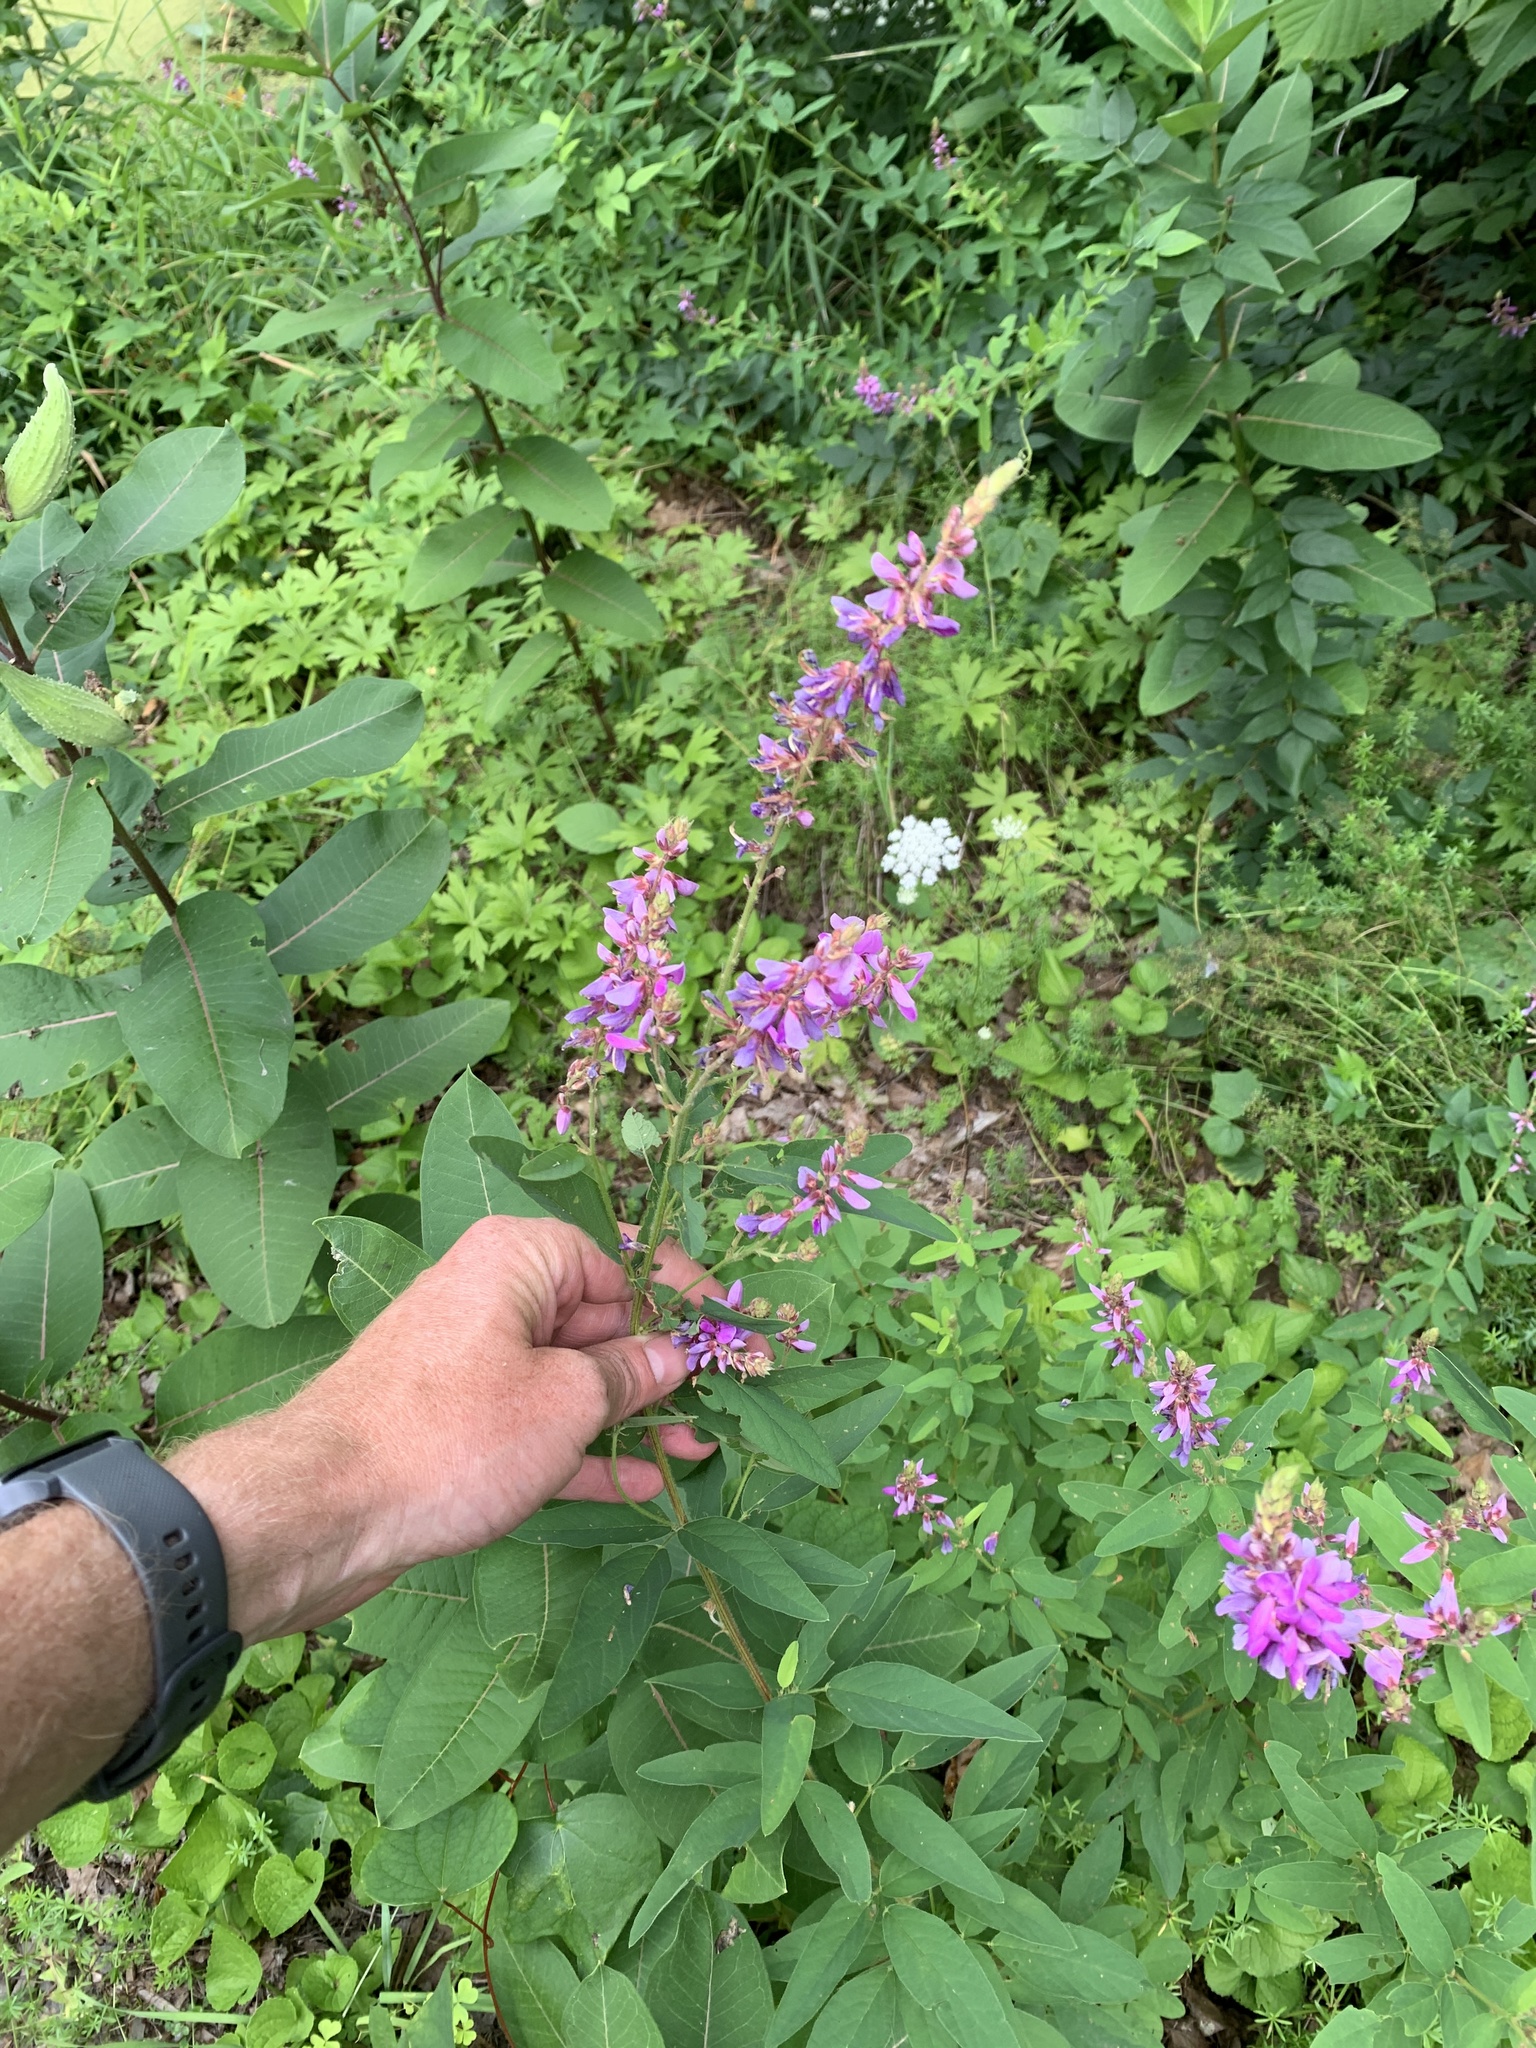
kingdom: Plantae
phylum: Tracheophyta
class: Magnoliopsida
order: Fabales
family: Fabaceae
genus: Desmodium
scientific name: Desmodium canadense
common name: Canada tick-trefoil
